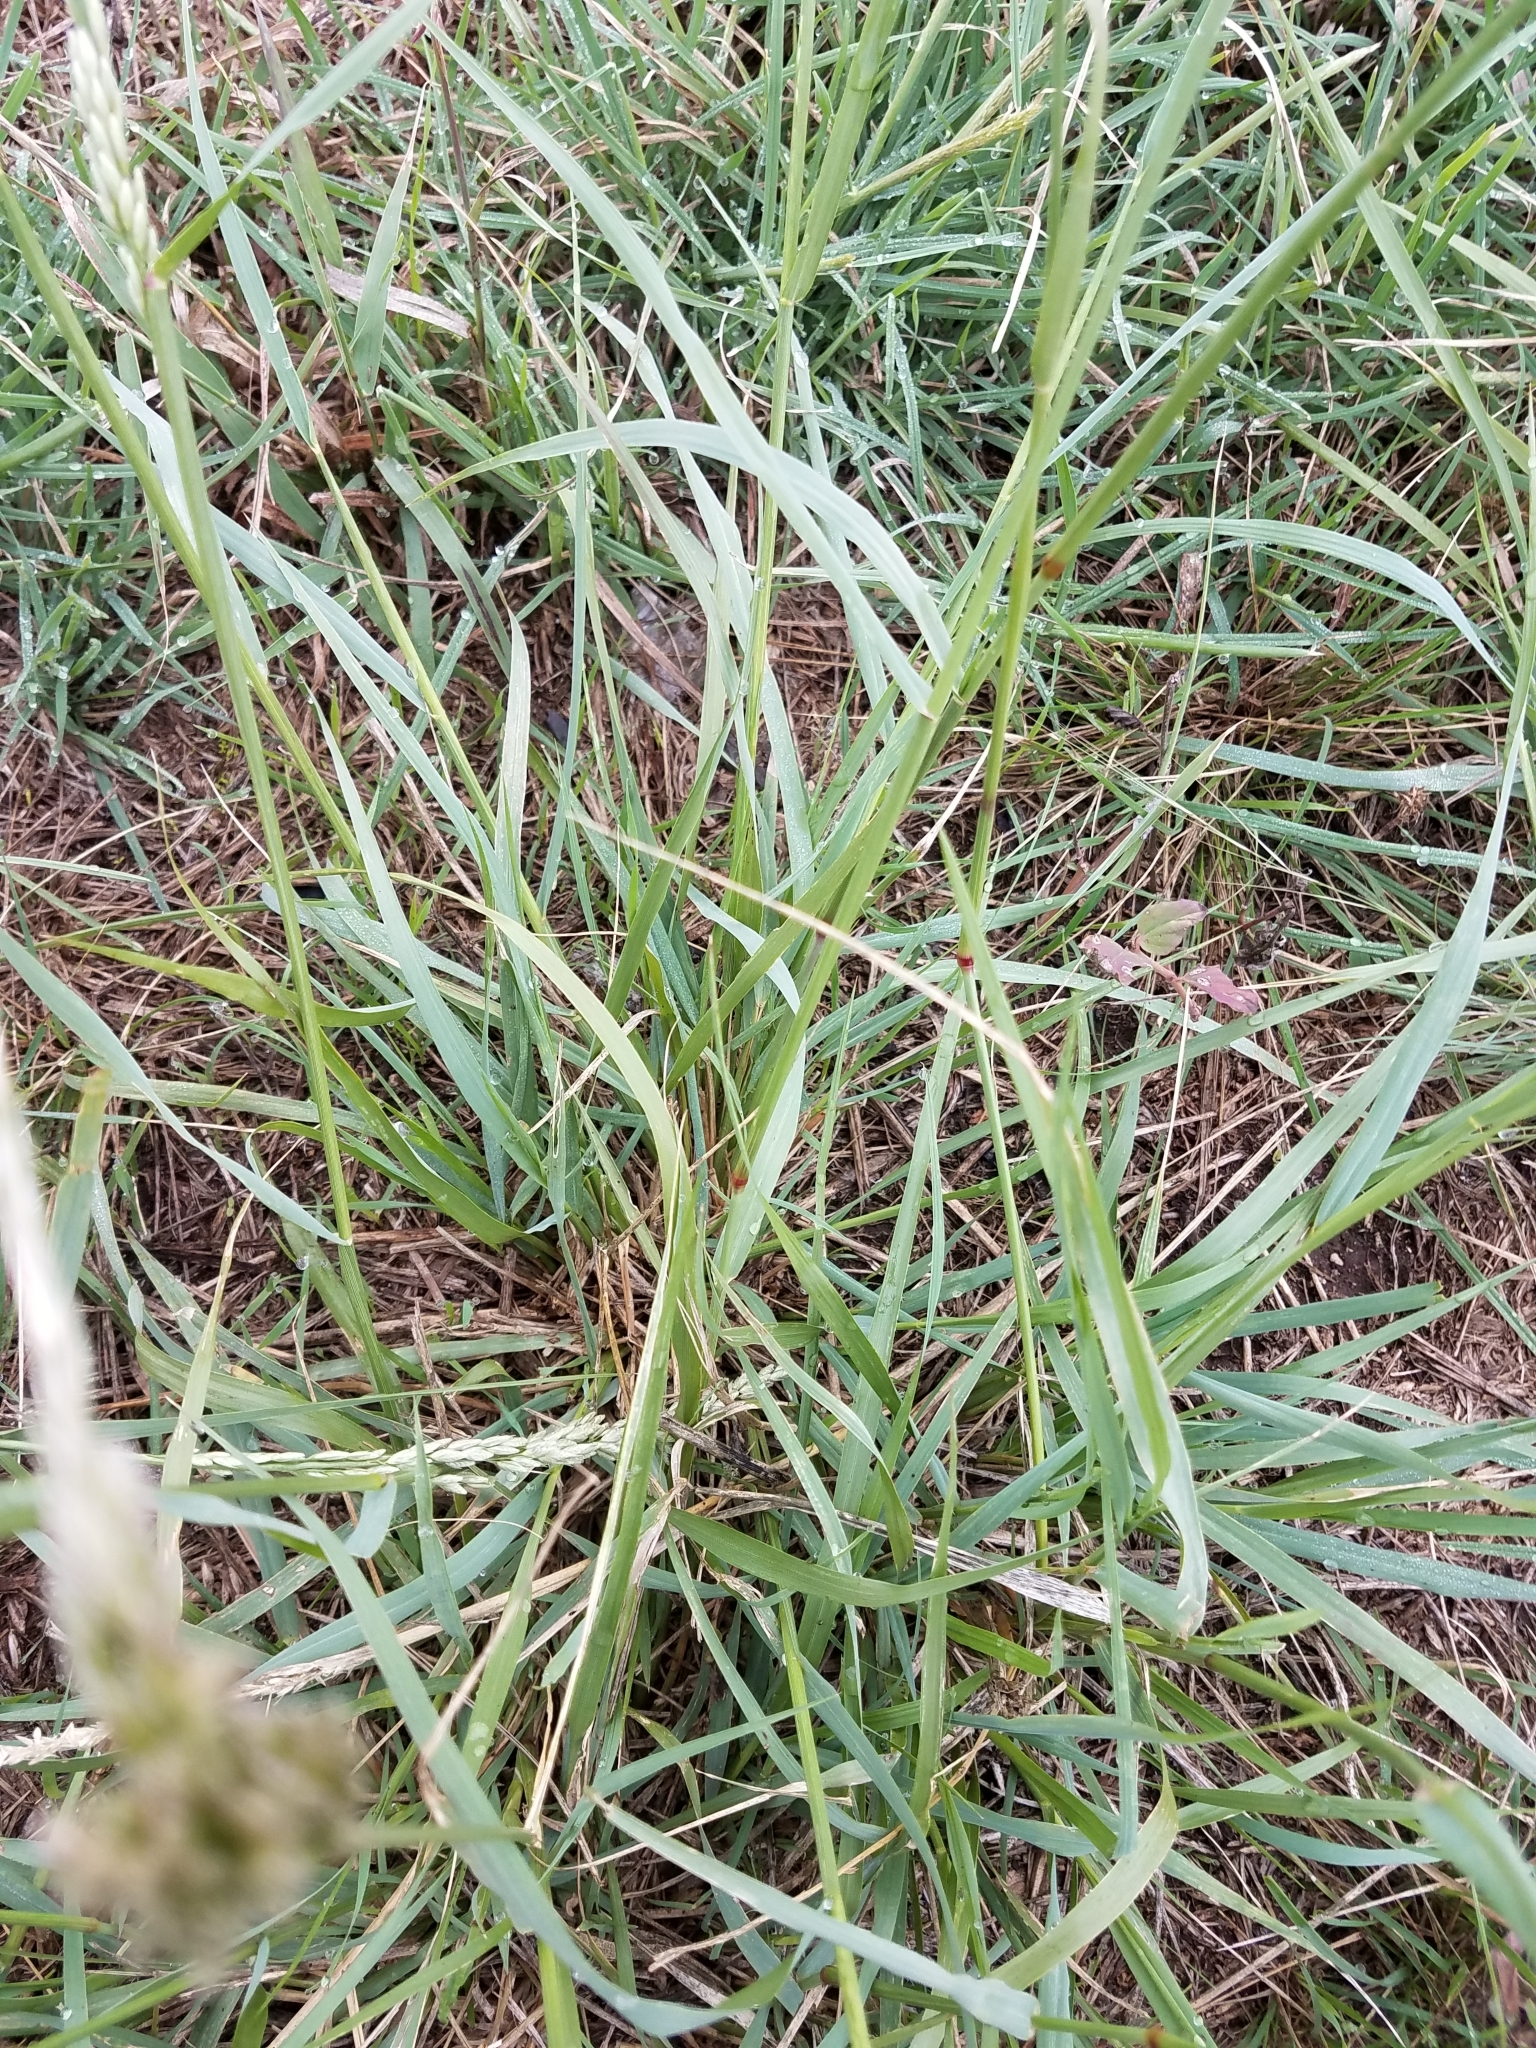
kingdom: Plantae
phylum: Tracheophyta
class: Liliopsida
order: Poales
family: Poaceae
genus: Tridens
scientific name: Tridens albescens
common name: White tridens
